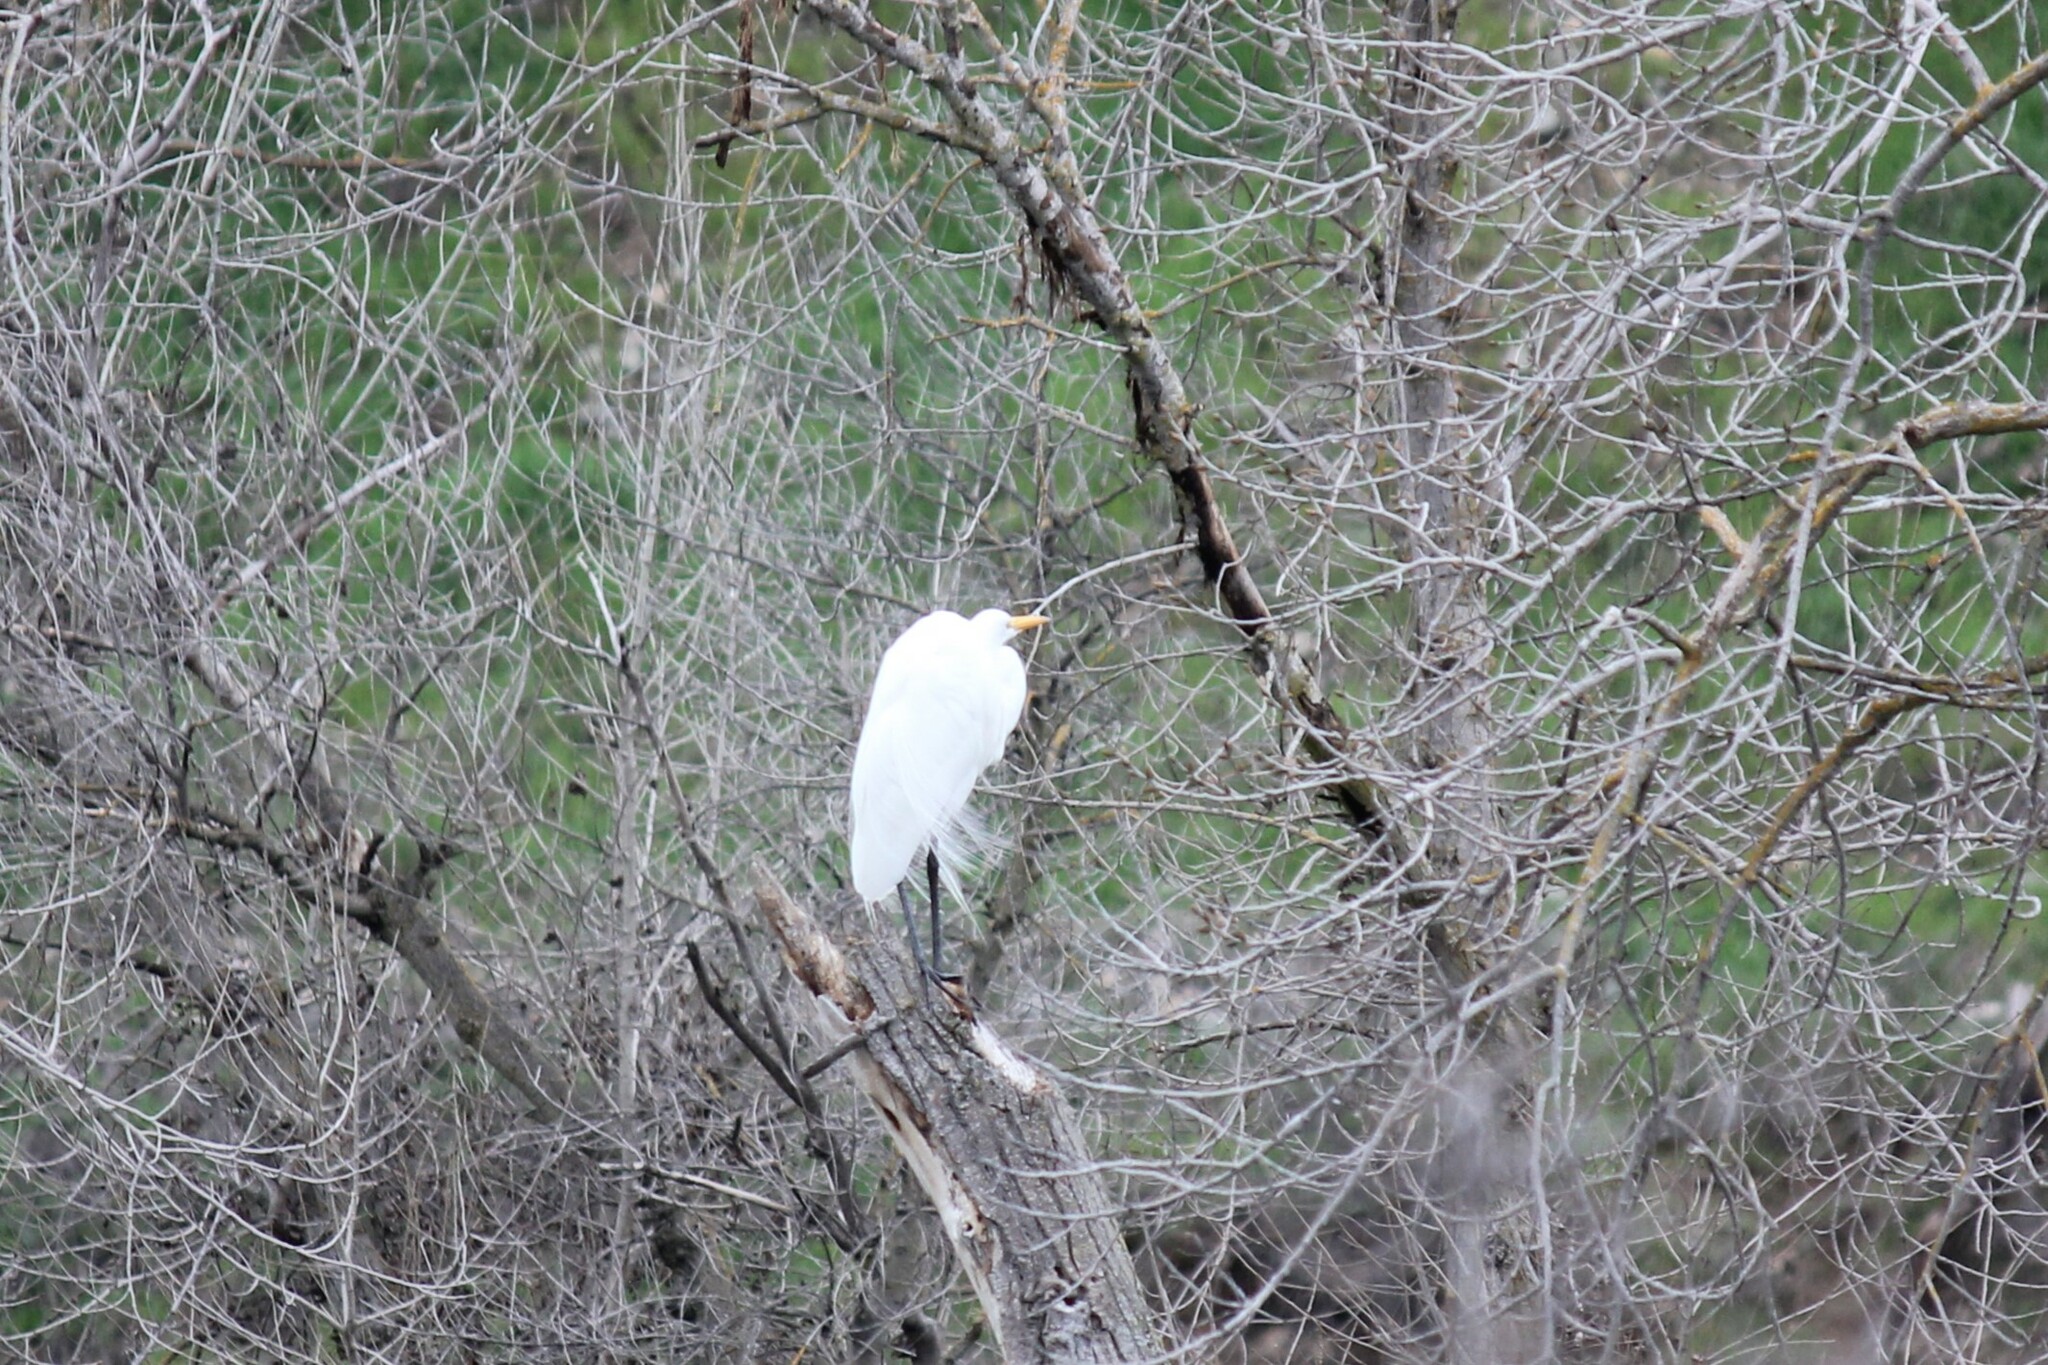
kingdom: Animalia
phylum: Chordata
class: Aves
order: Pelecaniformes
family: Ardeidae
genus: Ardea
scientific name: Ardea alba
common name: Great egret
